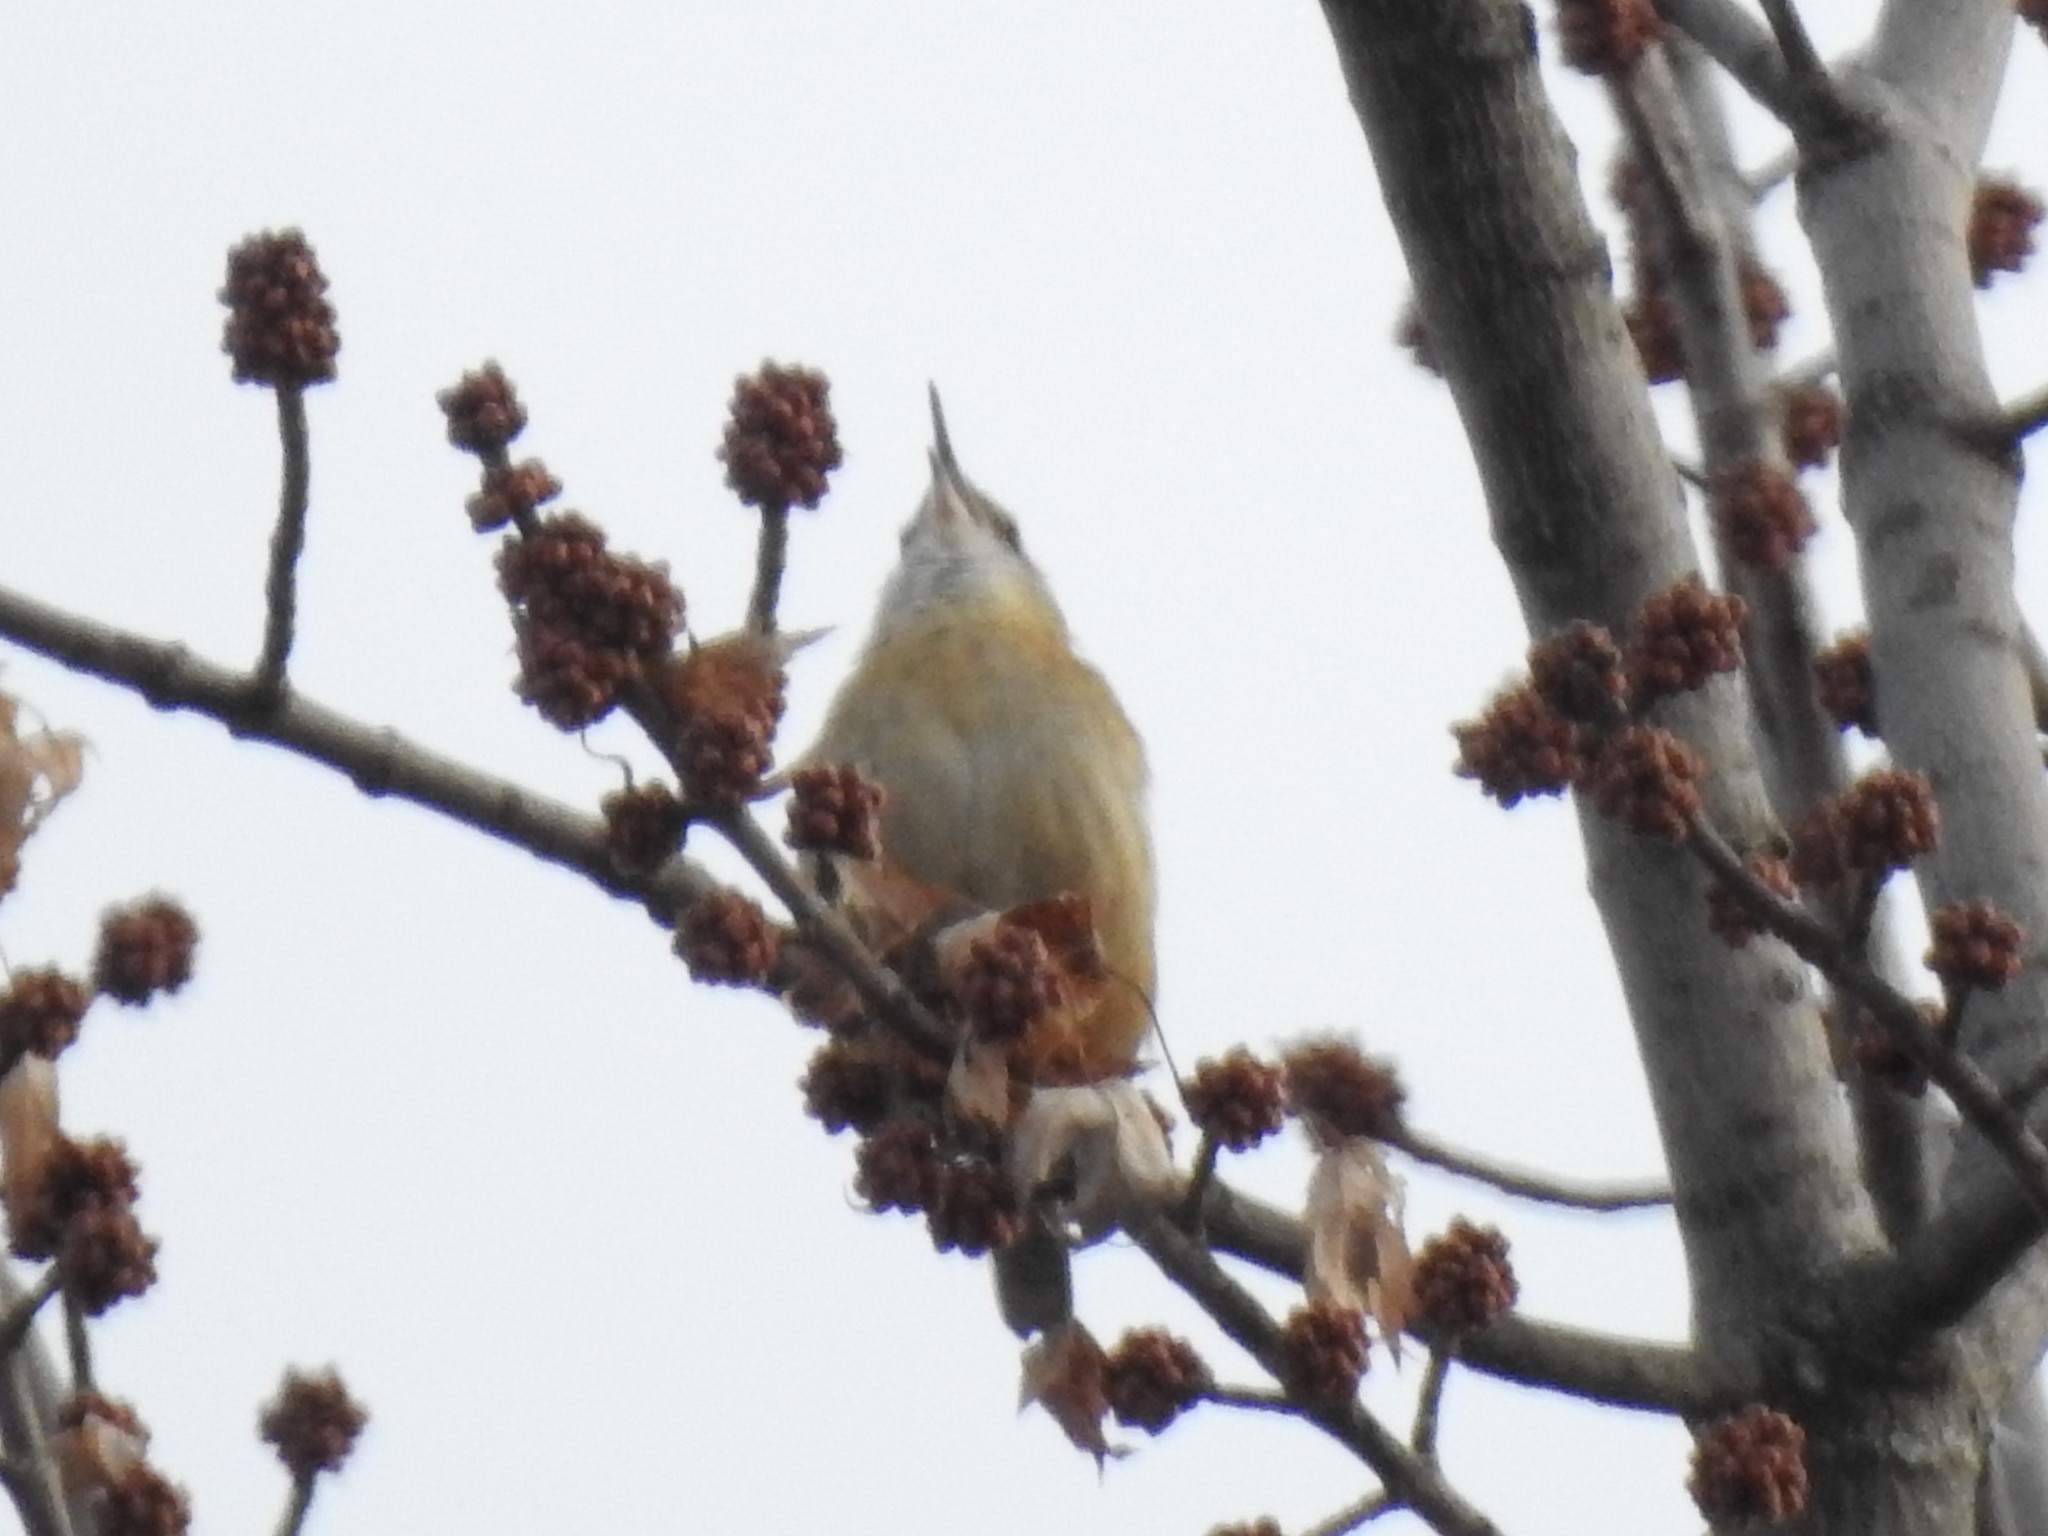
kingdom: Animalia
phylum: Chordata
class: Aves
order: Passeriformes
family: Troglodytidae
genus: Thryothorus
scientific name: Thryothorus ludovicianus
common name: Carolina wren
